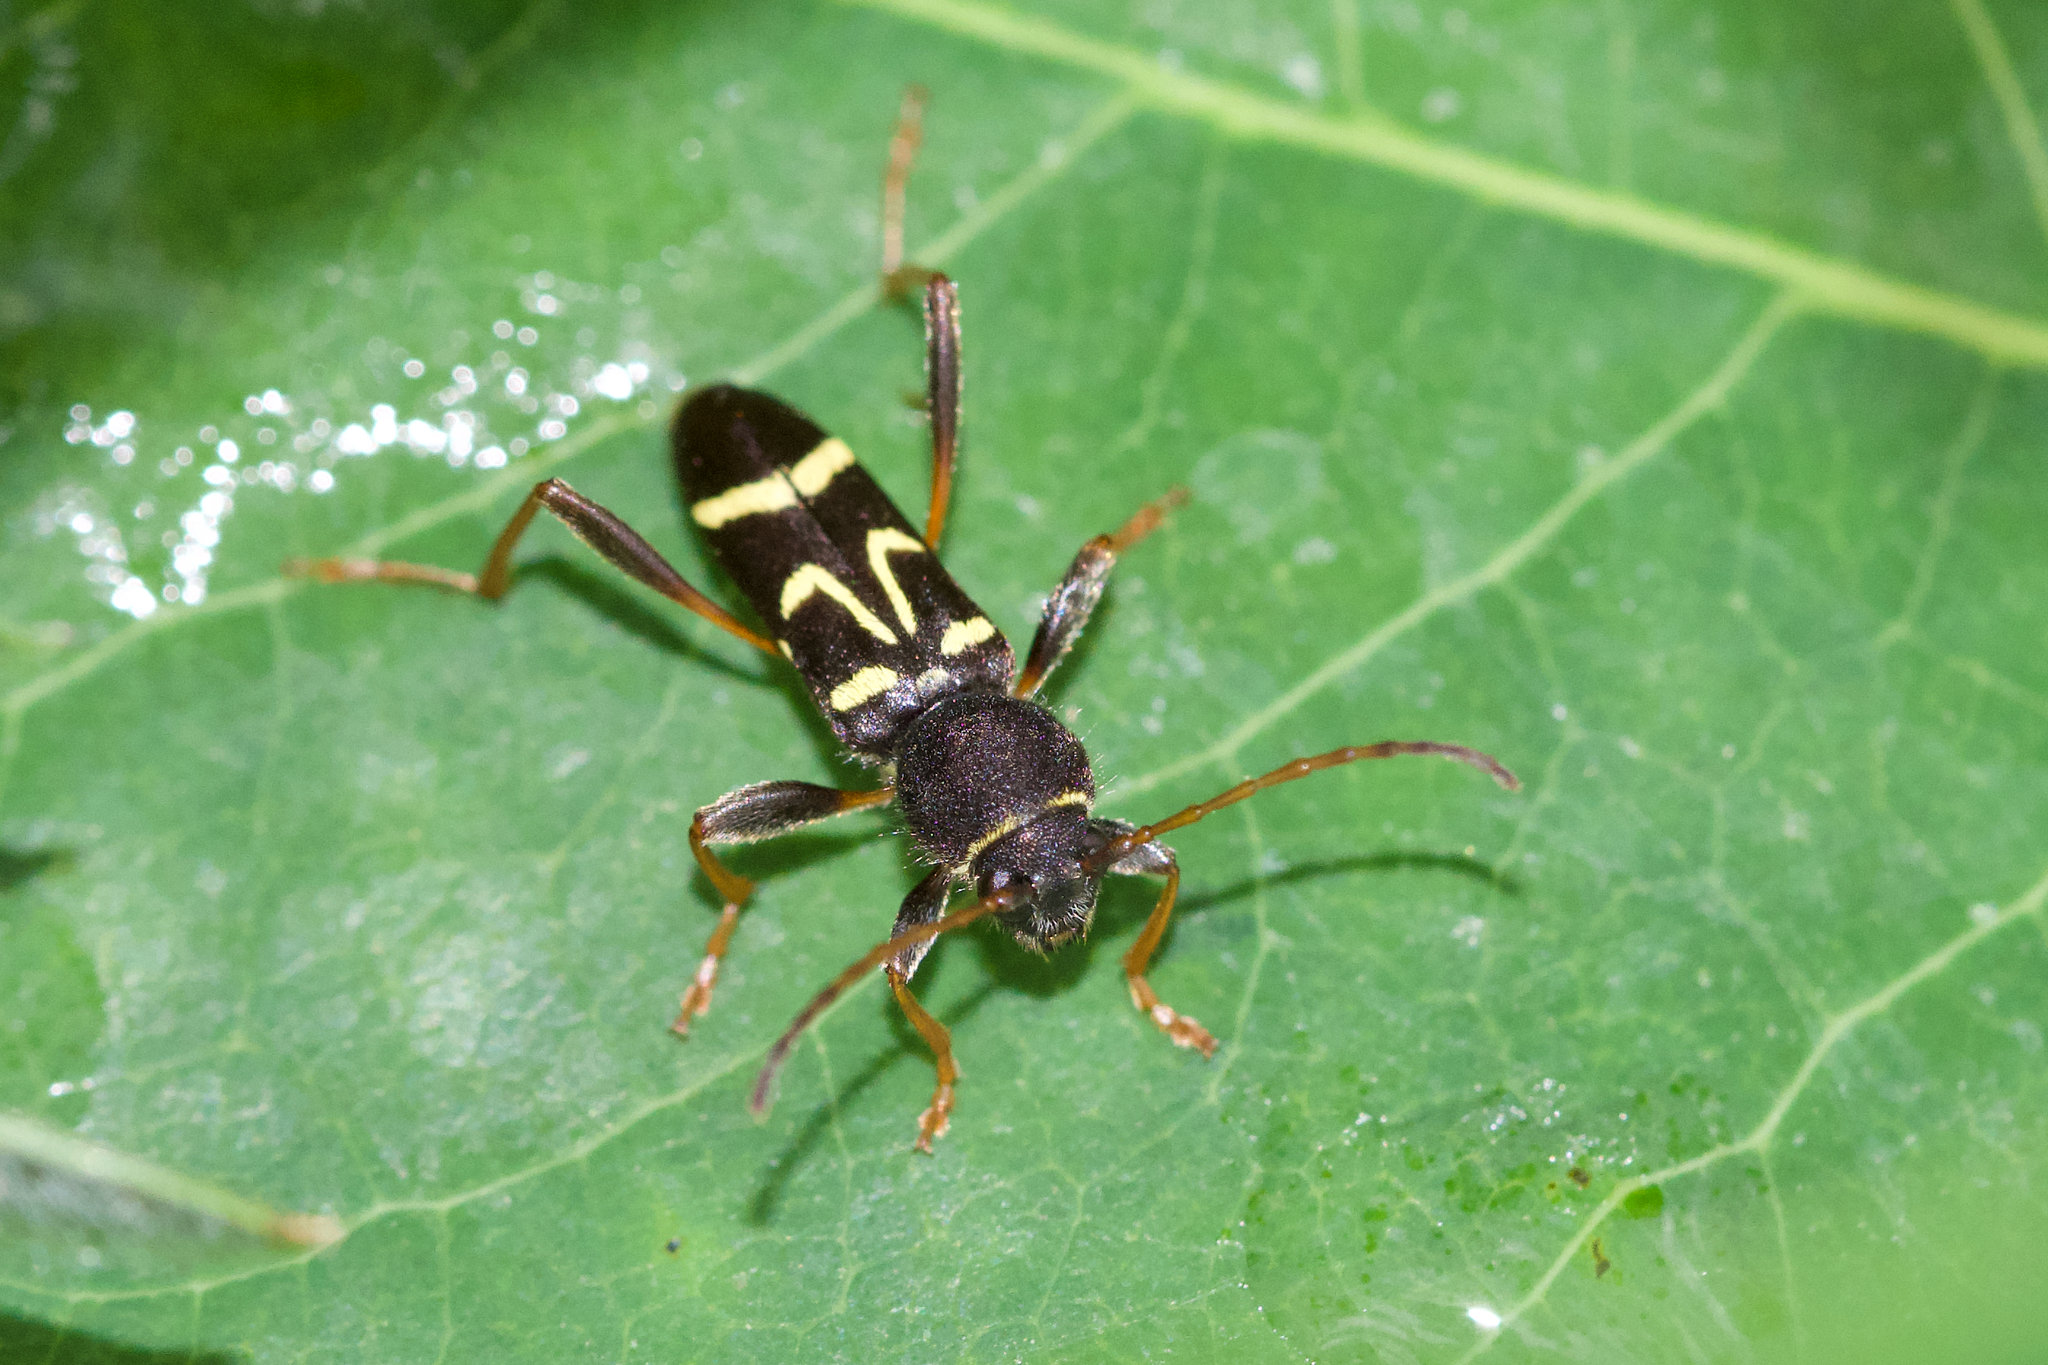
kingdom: Animalia
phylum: Arthropoda
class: Insecta
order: Coleoptera
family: Cerambycidae
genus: Clytus
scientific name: Clytus ruricola
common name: Round-necked longhorn beetle
